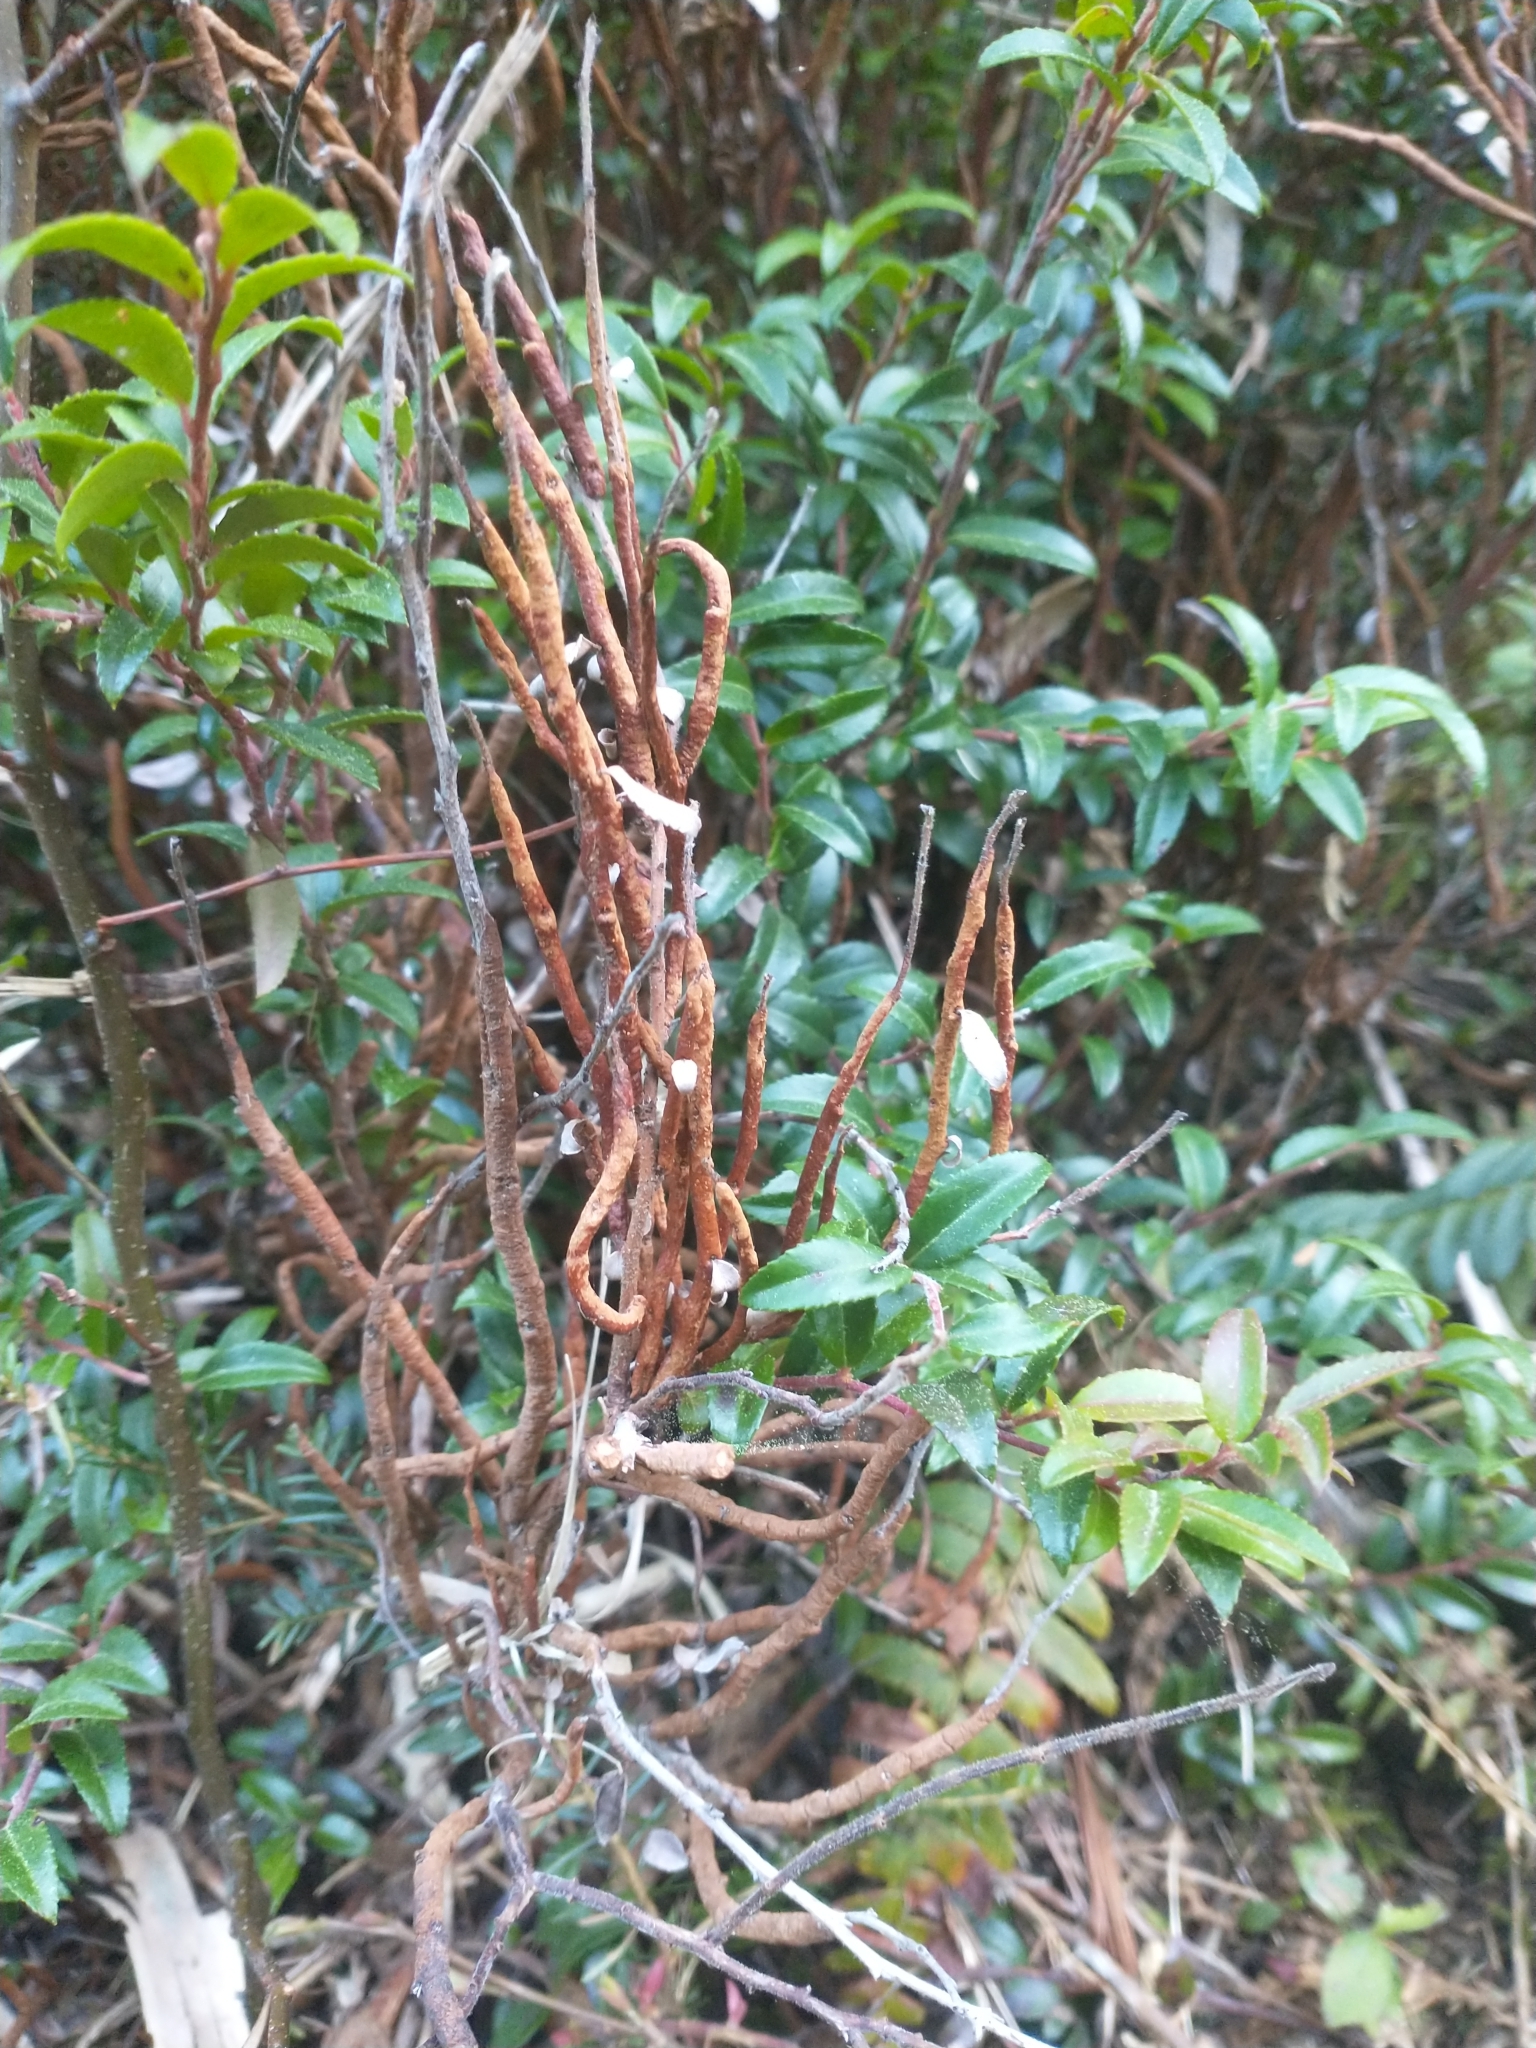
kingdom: Fungi
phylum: Basidiomycota
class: Pucciniomycetes
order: Pucciniales
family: Pucciniastraceae
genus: Calyptospora
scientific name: Calyptospora
